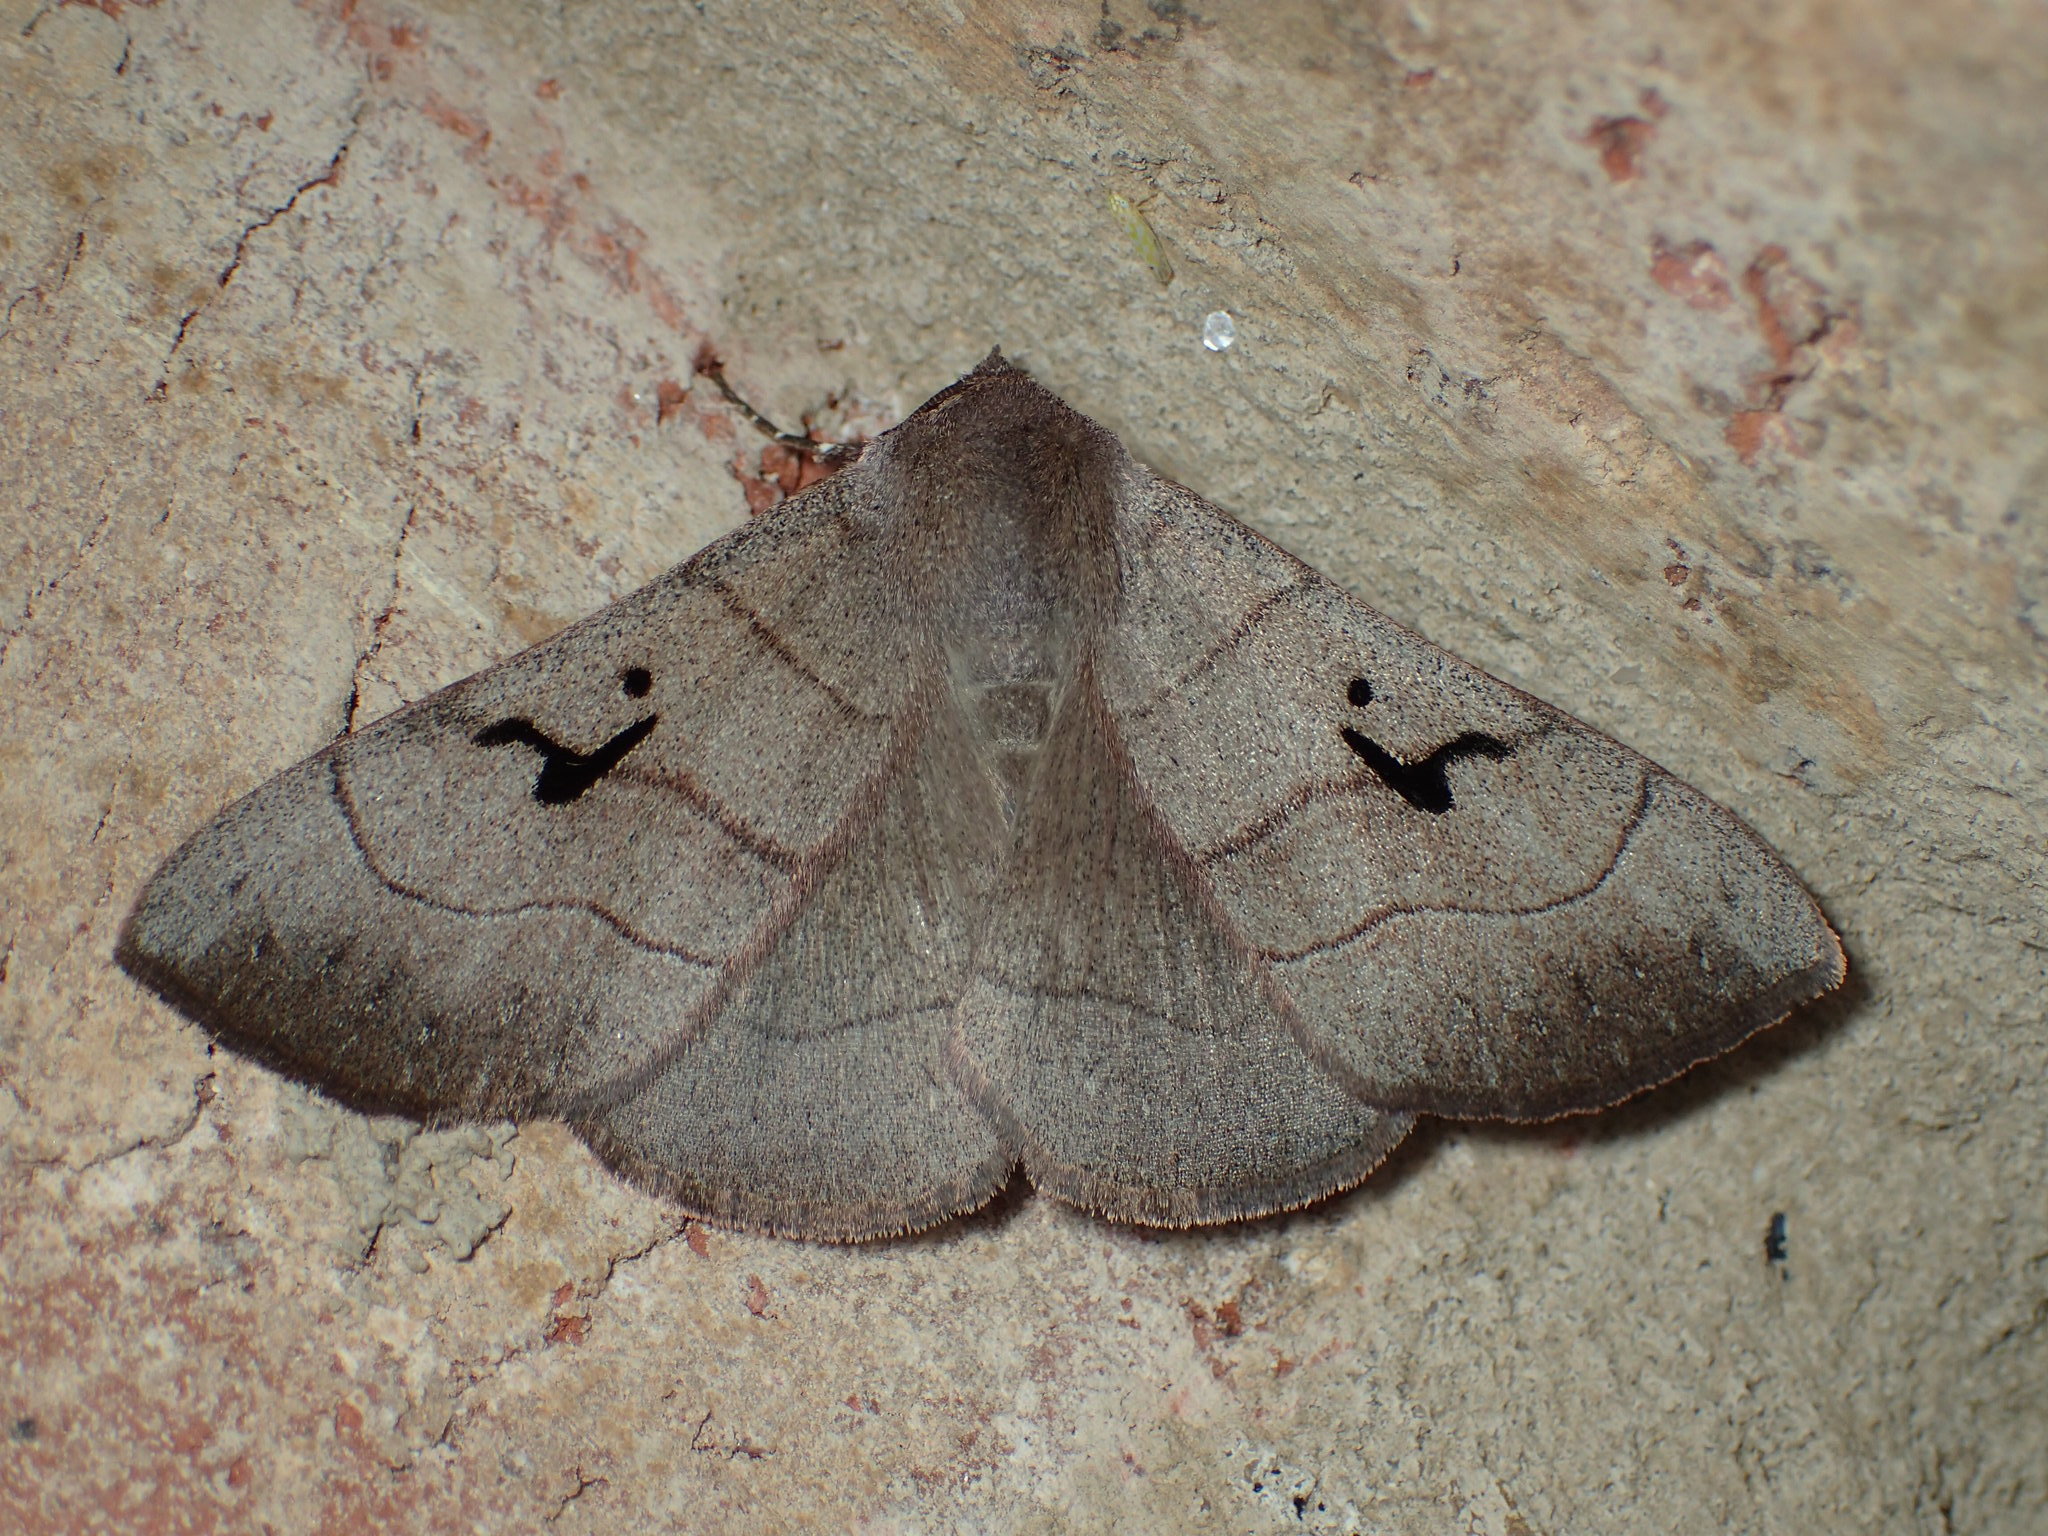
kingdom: Animalia
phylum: Arthropoda
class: Insecta
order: Lepidoptera
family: Erebidae
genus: Panopoda
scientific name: Panopoda carneicosta
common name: Brown panopoda moth
